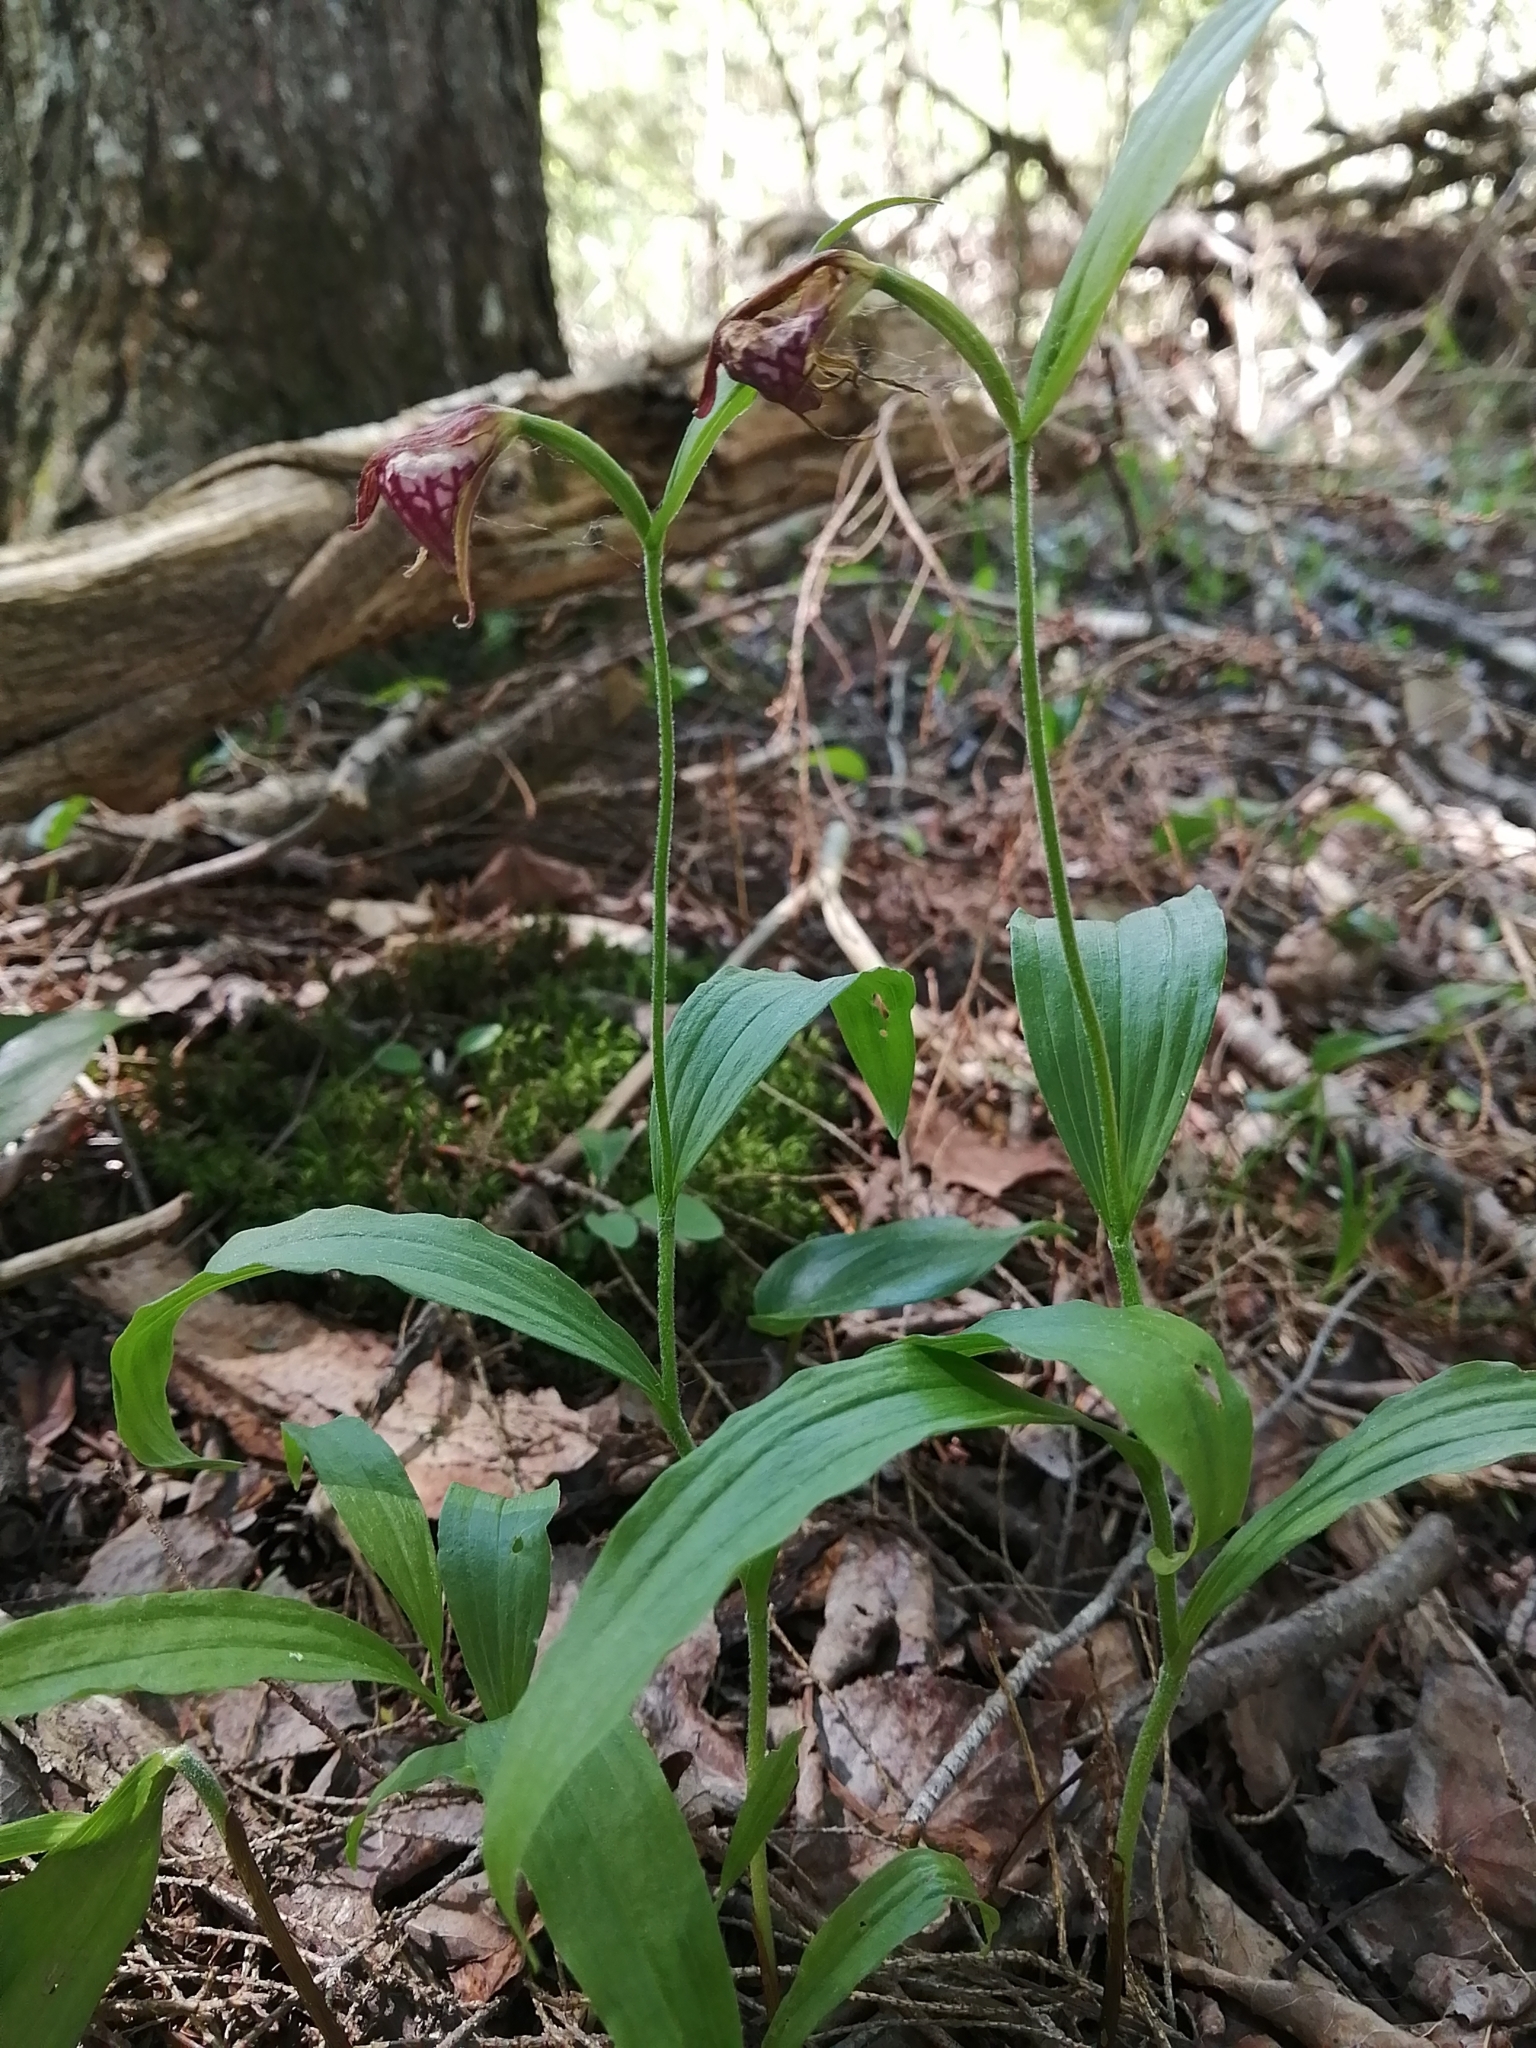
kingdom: Plantae
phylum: Tracheophyta
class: Liliopsida
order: Asparagales
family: Orchidaceae
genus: Cypripedium
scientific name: Cypripedium arietinum
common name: Ram's-head
